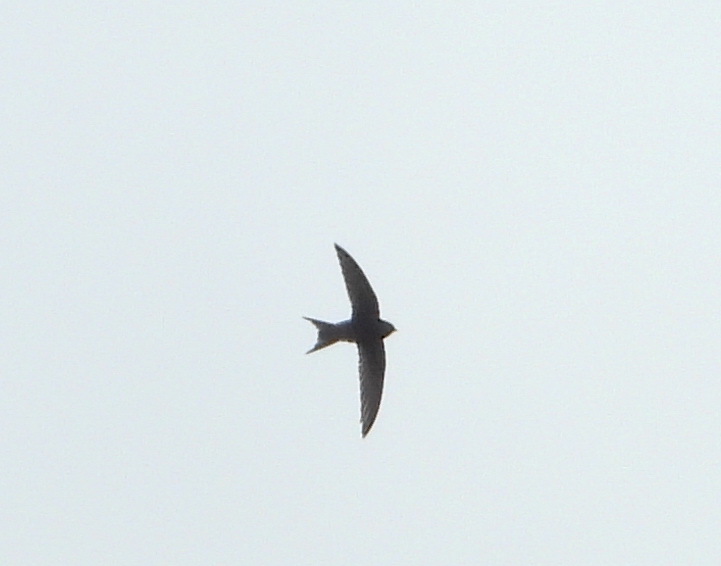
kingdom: Animalia
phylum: Chordata
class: Aves
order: Apodiformes
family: Apodidae
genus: Apus
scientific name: Apus apus
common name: Common swift
